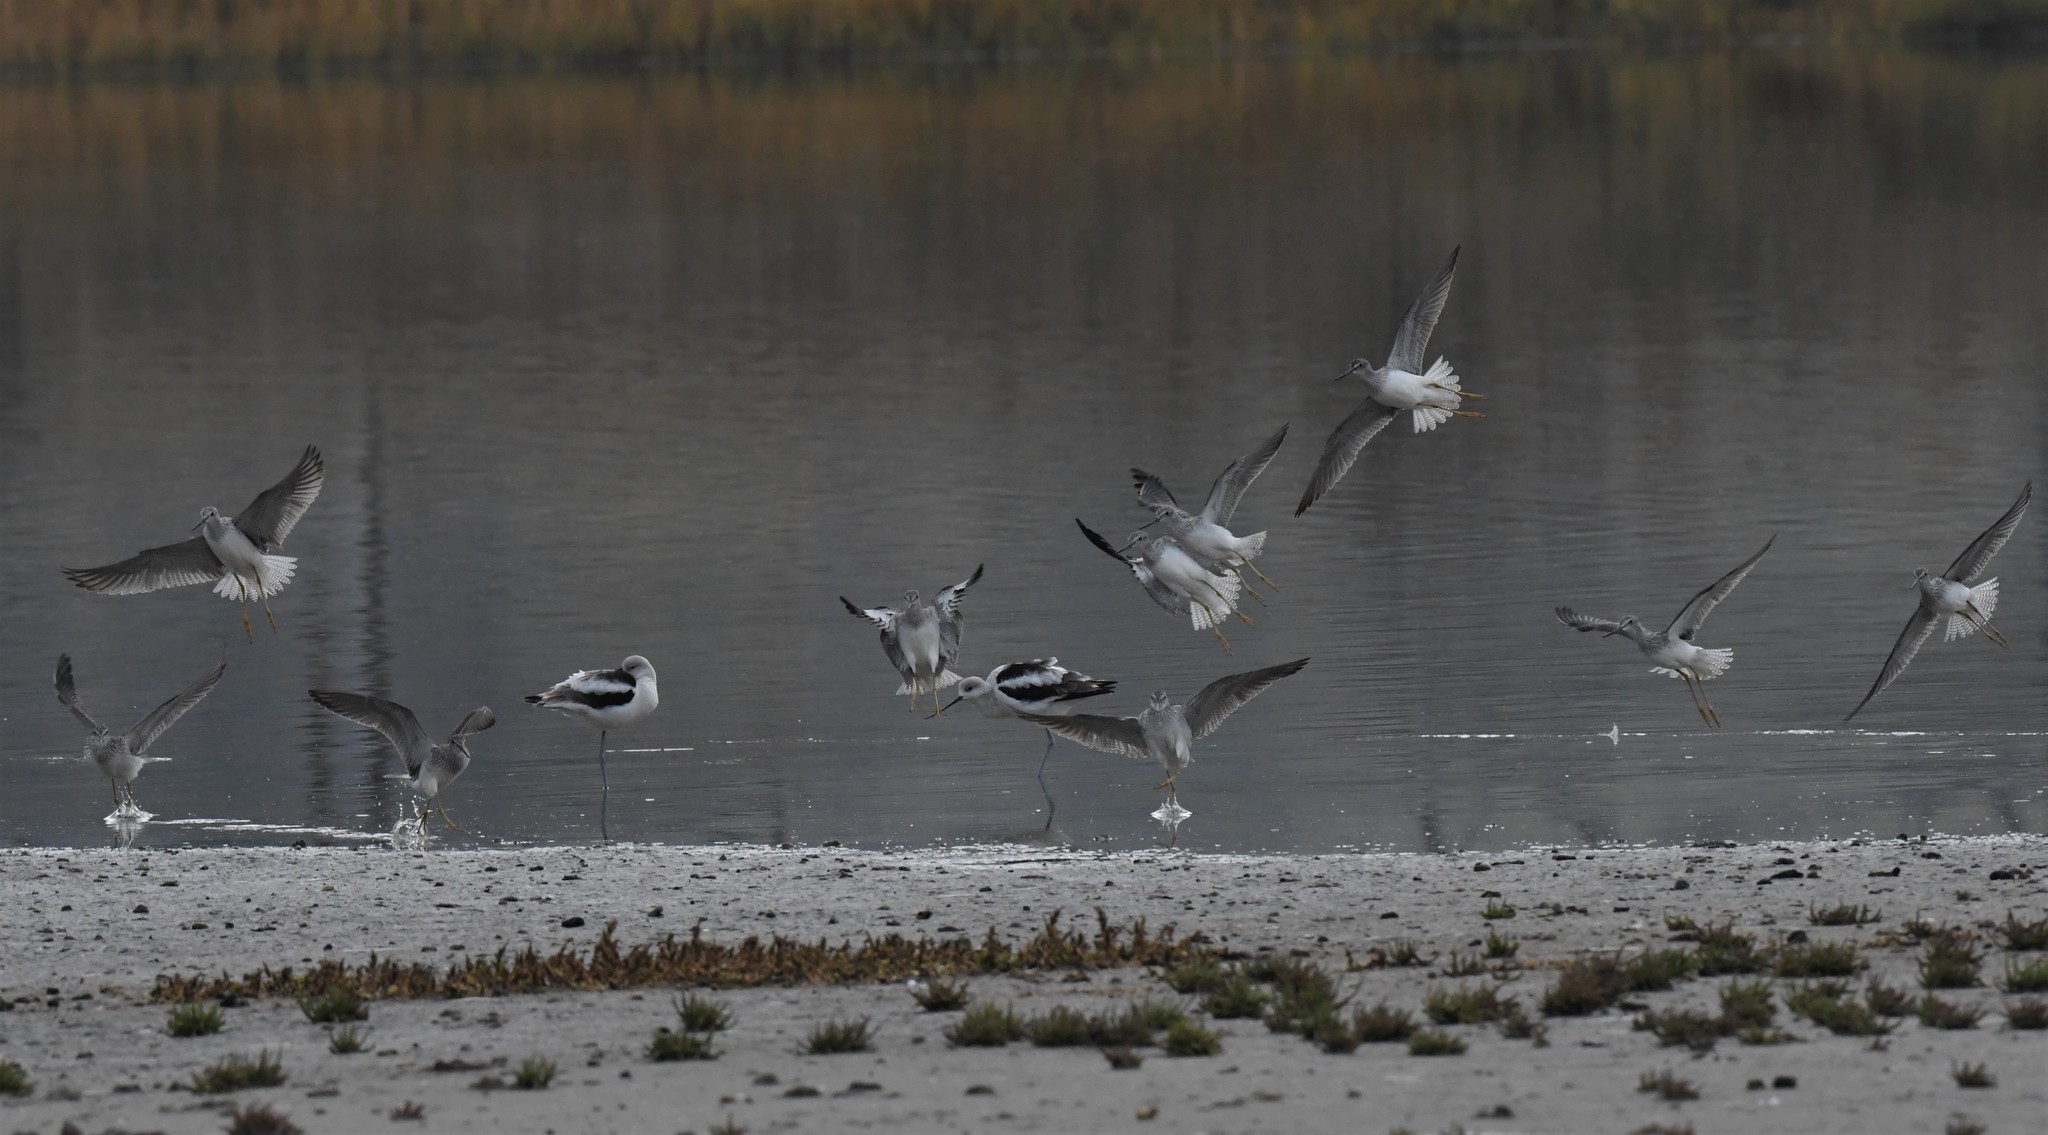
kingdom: Animalia
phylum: Chordata
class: Aves
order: Charadriiformes
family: Scolopacidae
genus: Tringa
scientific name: Tringa melanoleuca
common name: Greater yellowlegs
